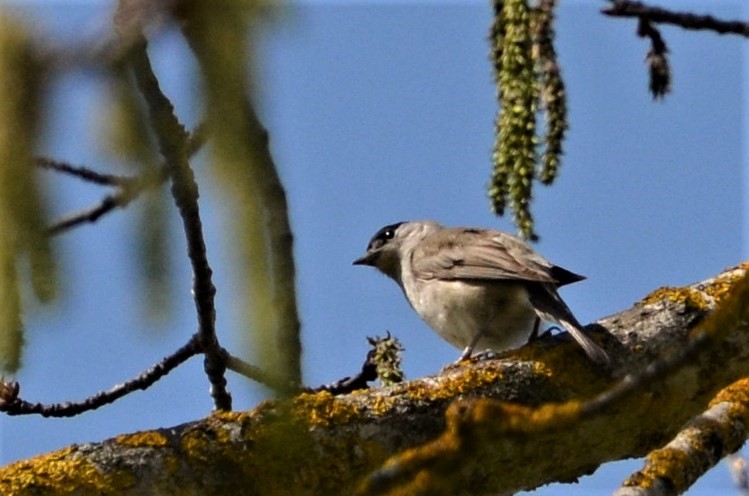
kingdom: Animalia
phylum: Chordata
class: Aves
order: Passeriformes
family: Sylviidae
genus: Sylvia
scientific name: Sylvia atricapilla
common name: Eurasian blackcap
